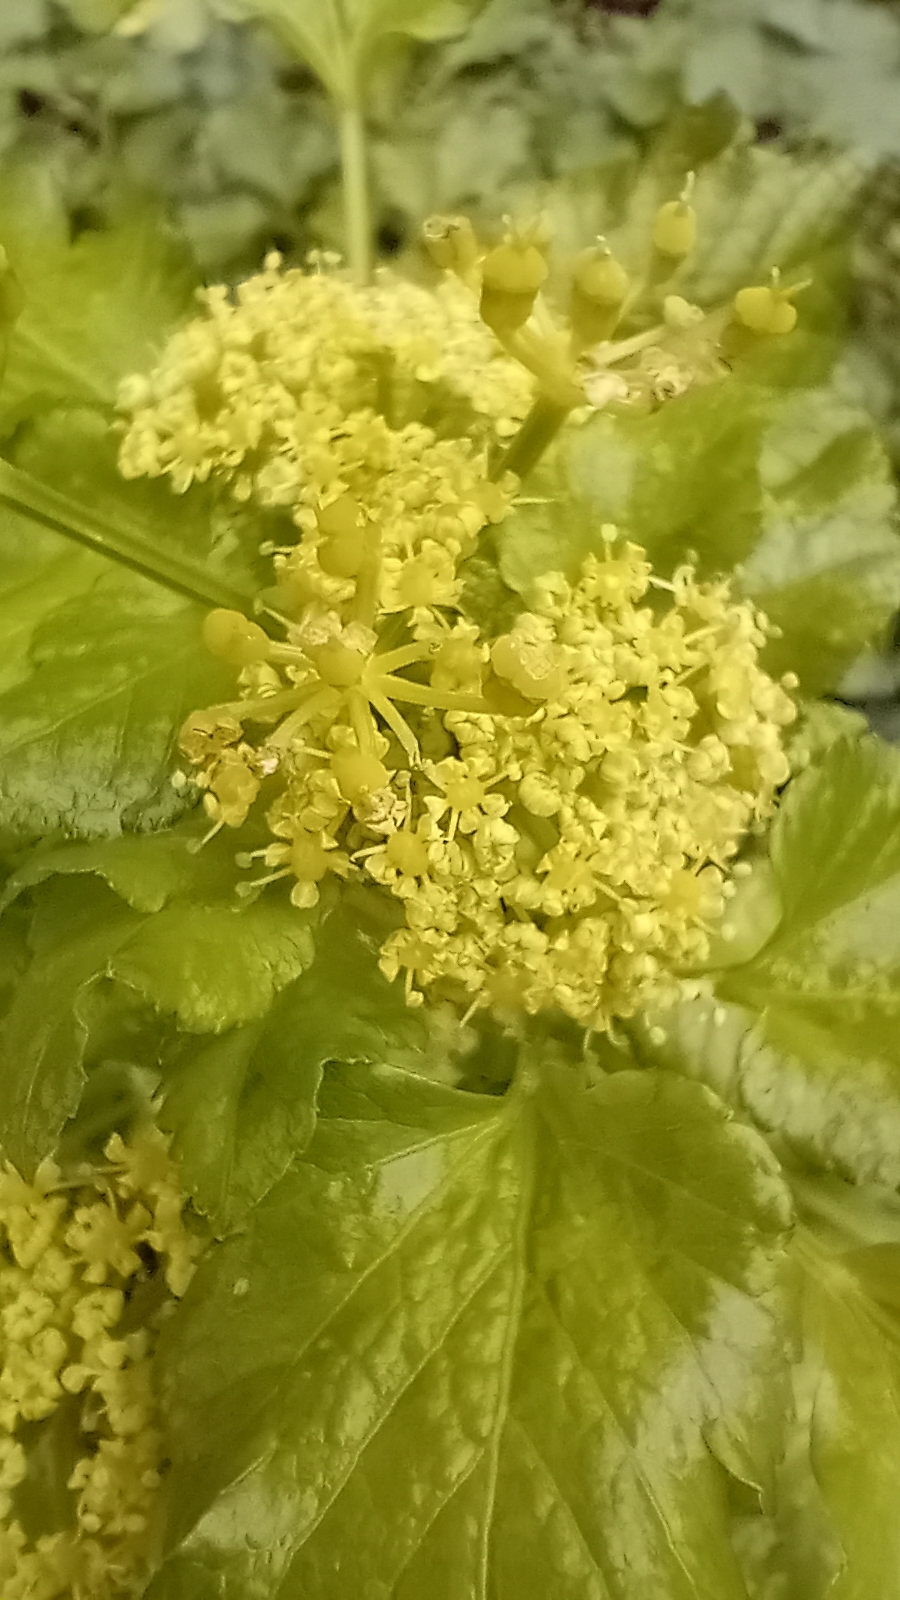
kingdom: Plantae
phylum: Tracheophyta
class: Magnoliopsida
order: Apiales
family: Apiaceae
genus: Smyrnium
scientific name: Smyrnium olusatrum
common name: Alexanders
